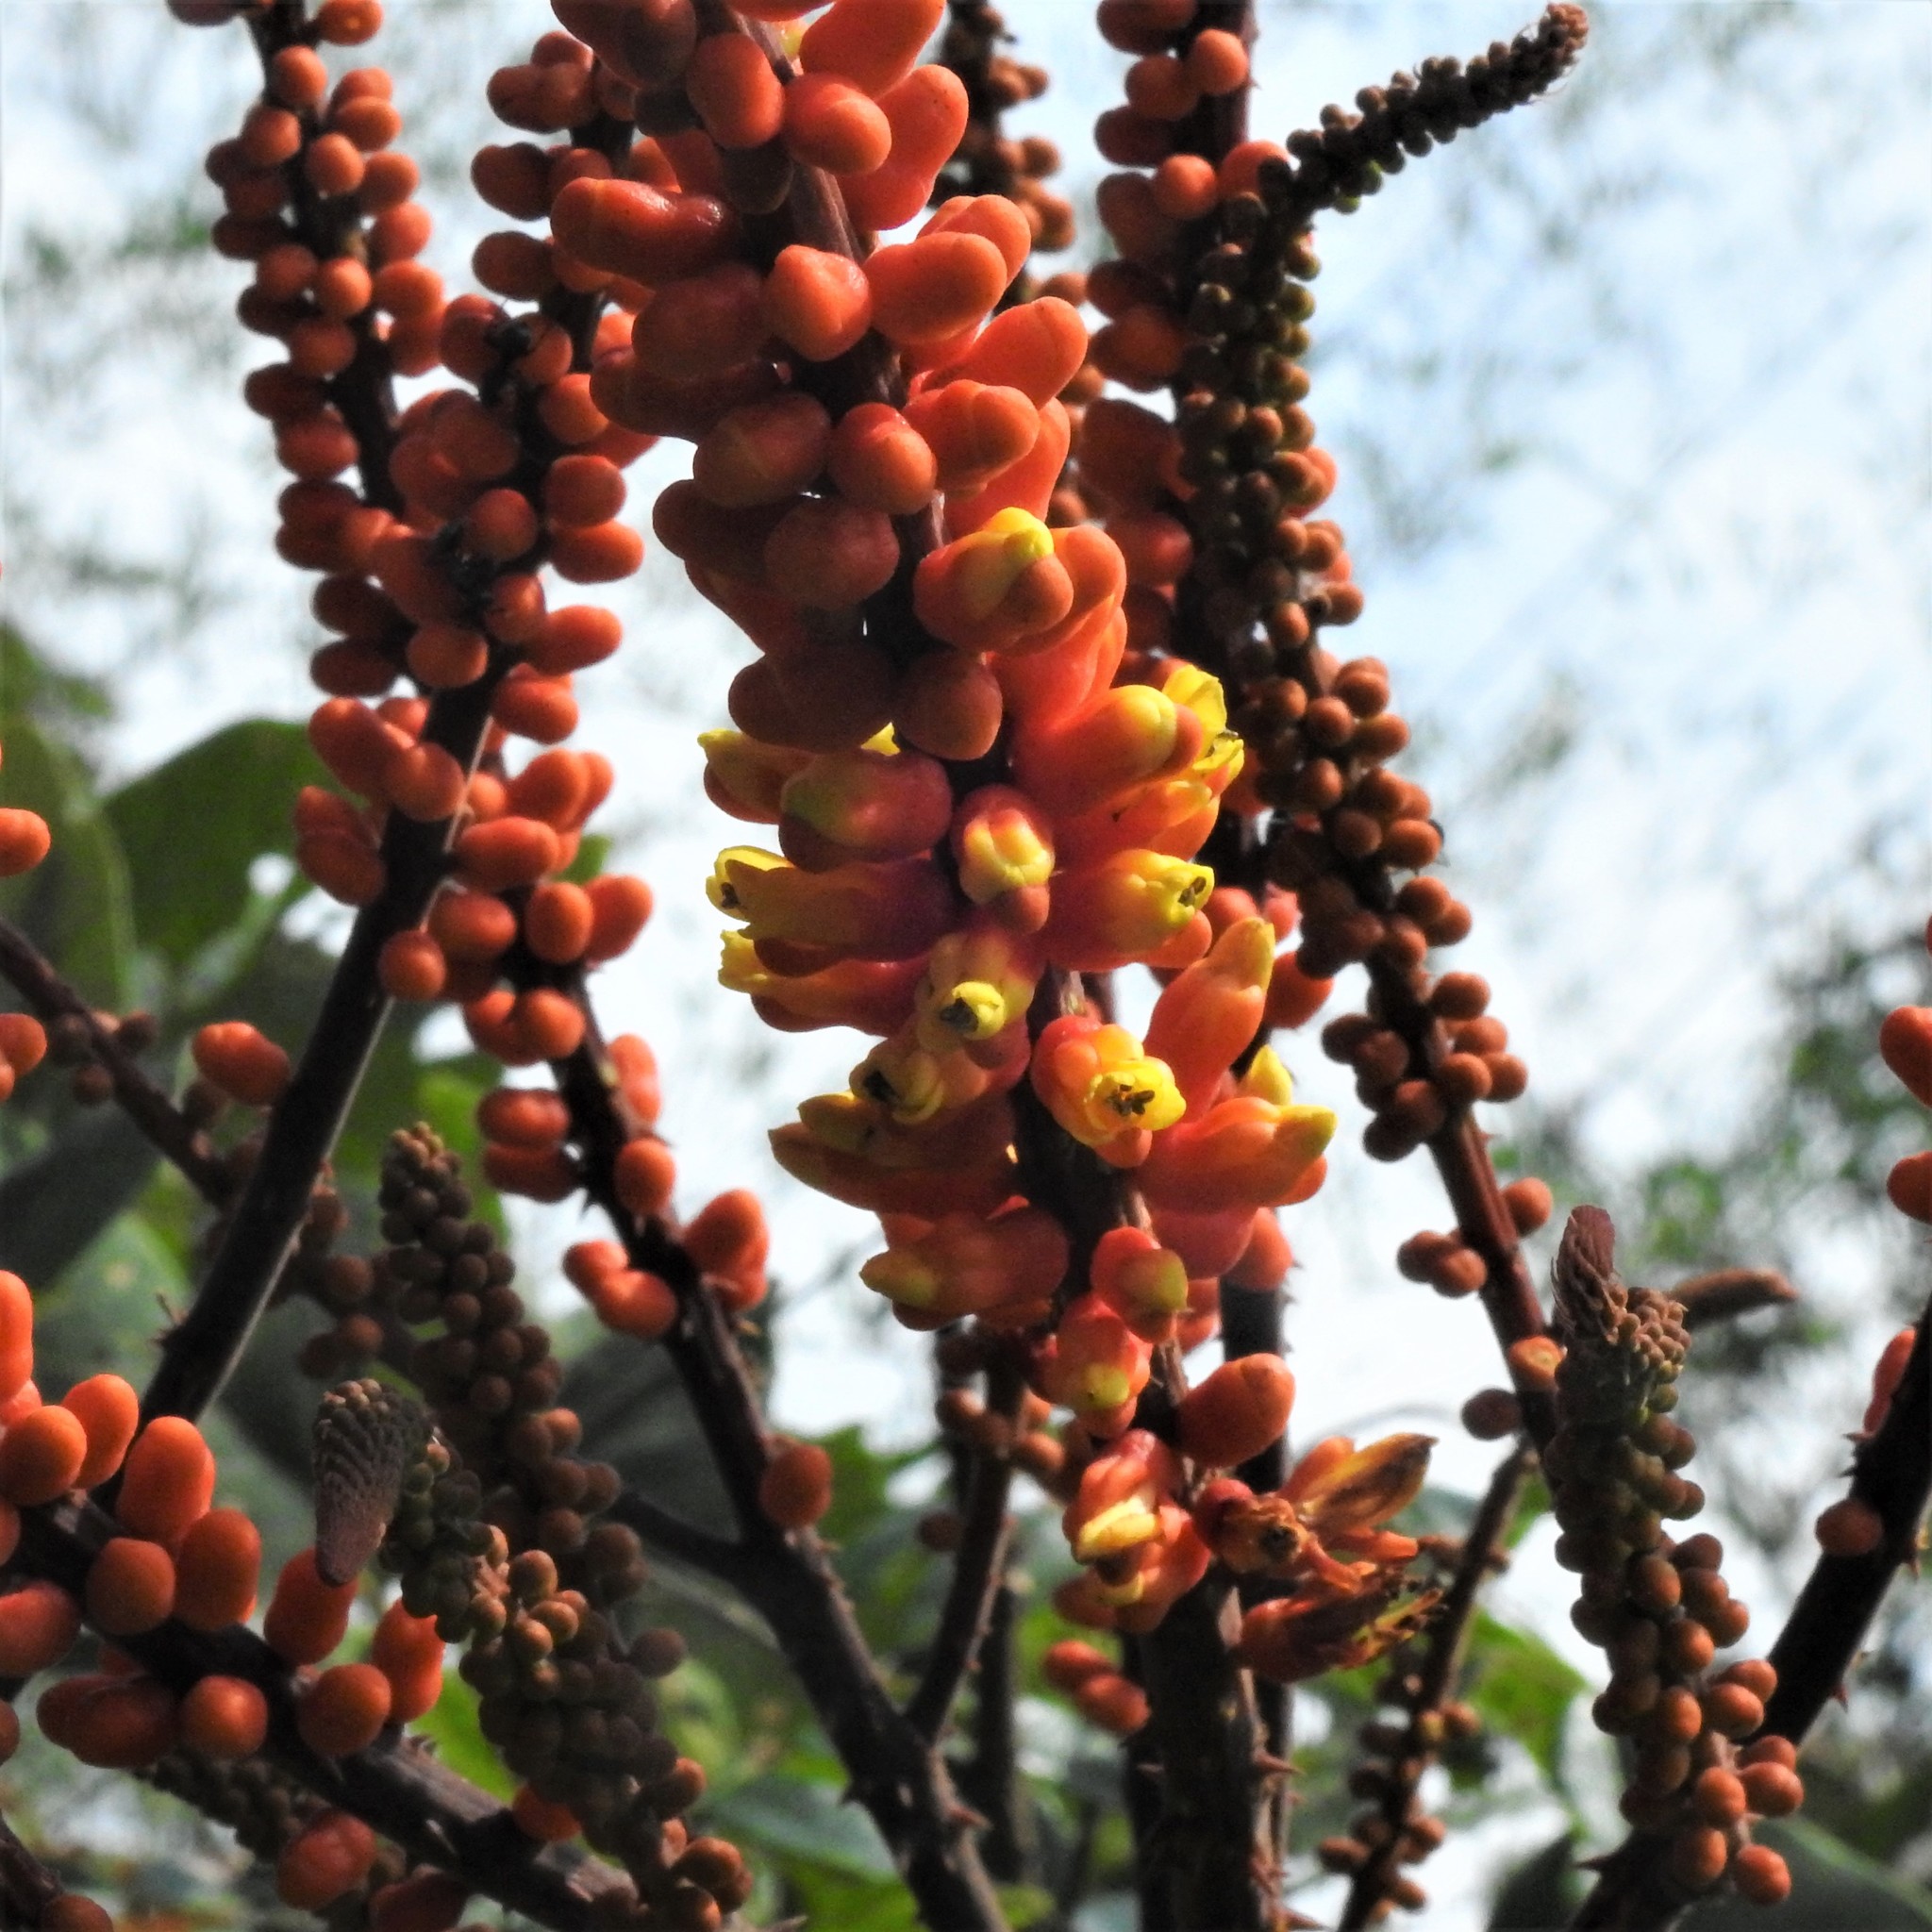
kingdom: Plantae
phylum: Tracheophyta
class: Magnoliopsida
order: Fabales
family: Fabaceae
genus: Moullava
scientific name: Moullava spicata
